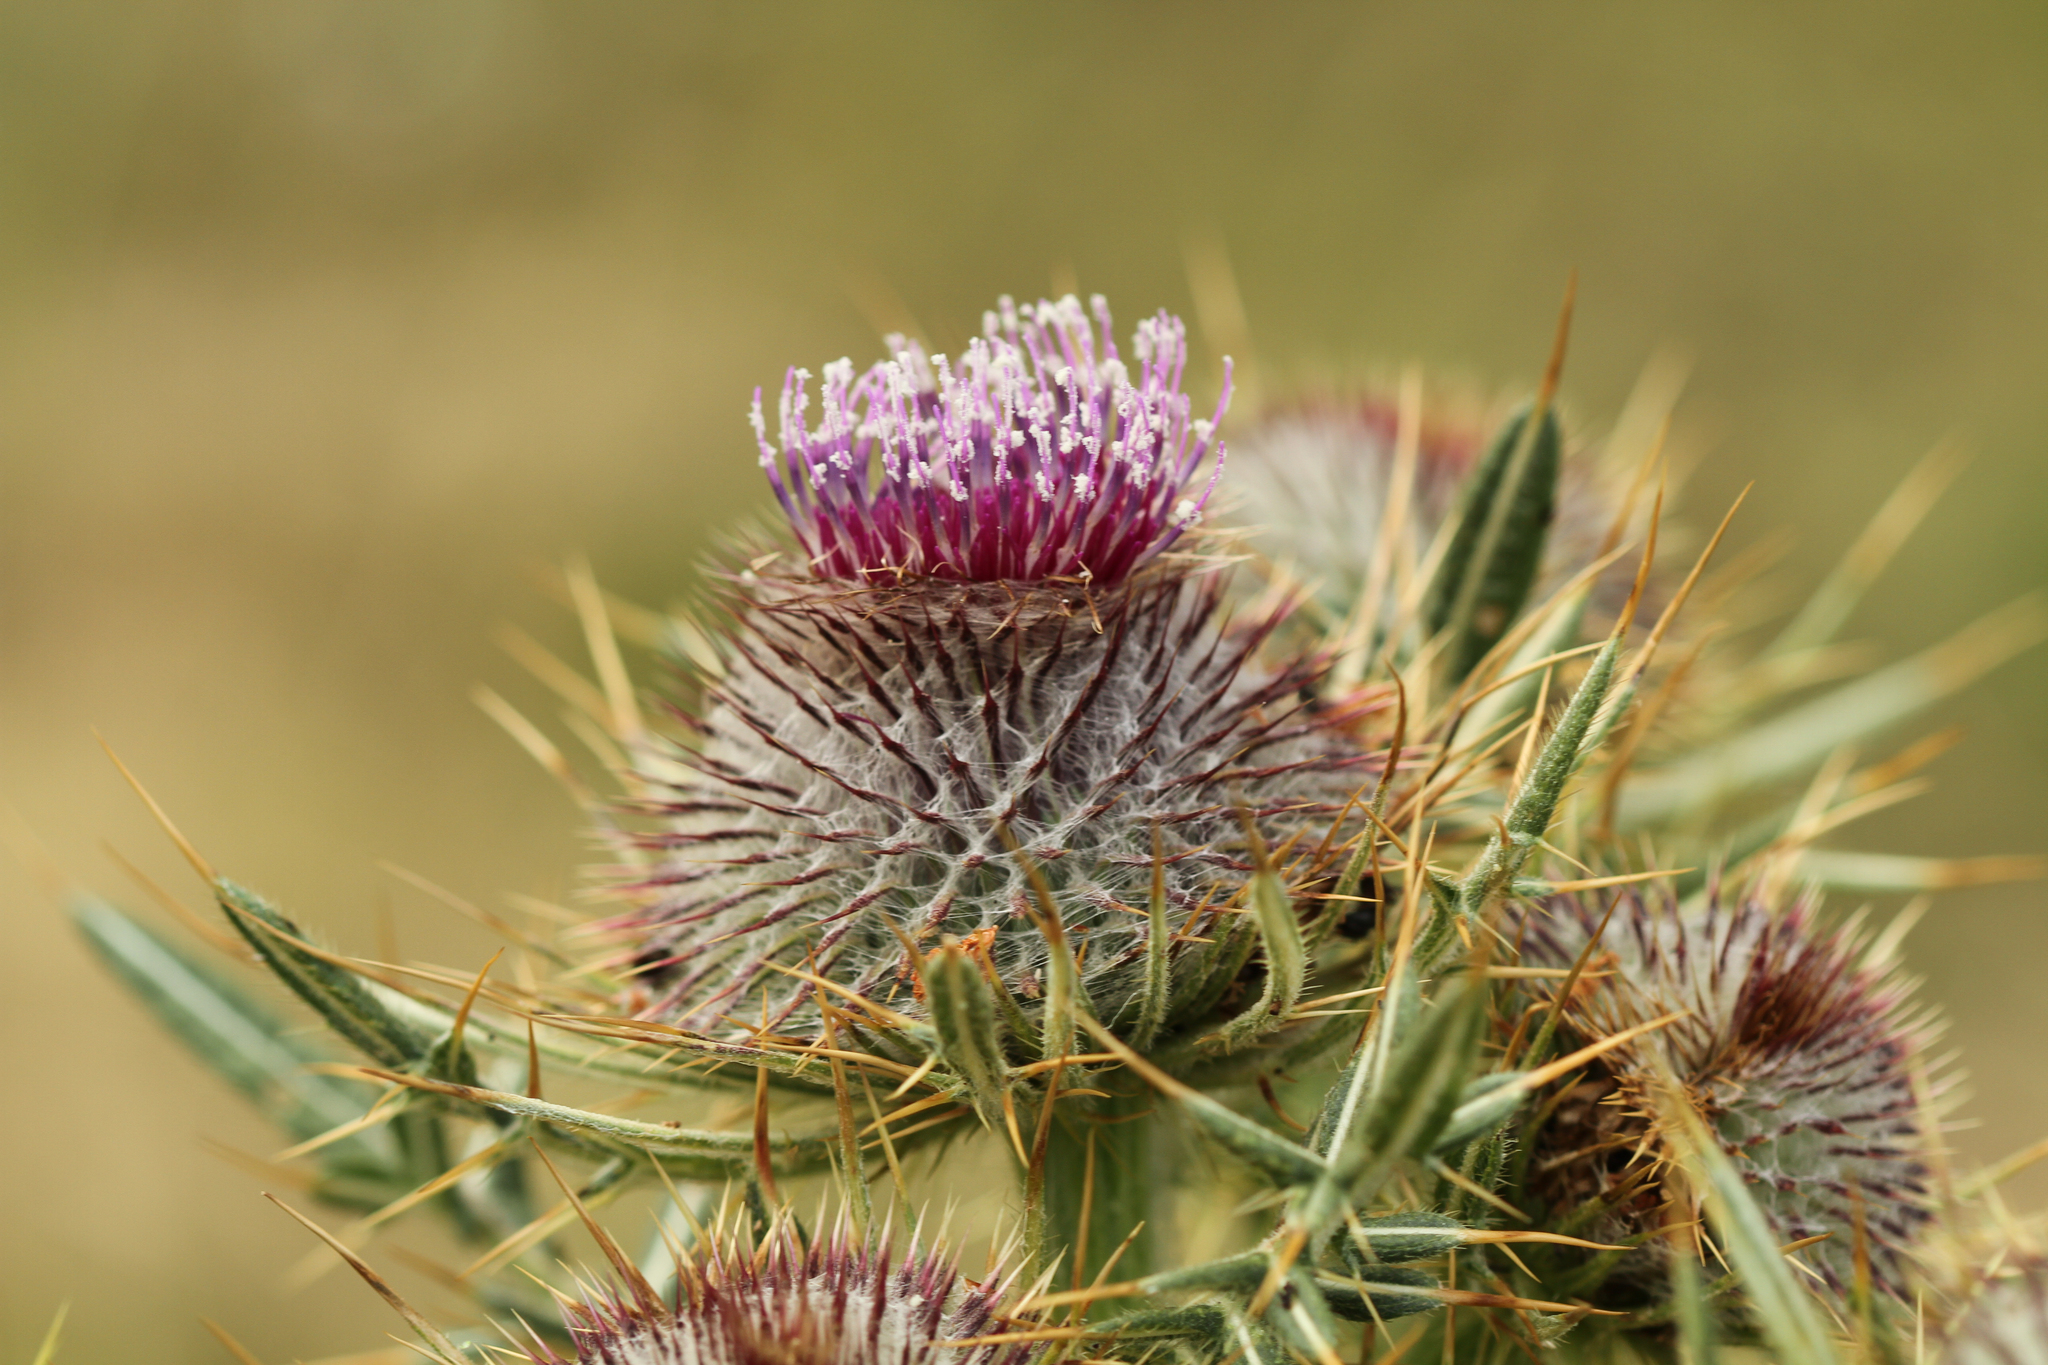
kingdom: Plantae
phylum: Tracheophyta
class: Magnoliopsida
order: Asterales
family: Asteraceae
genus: Lophiolepis
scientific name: Lophiolepis eriophora
